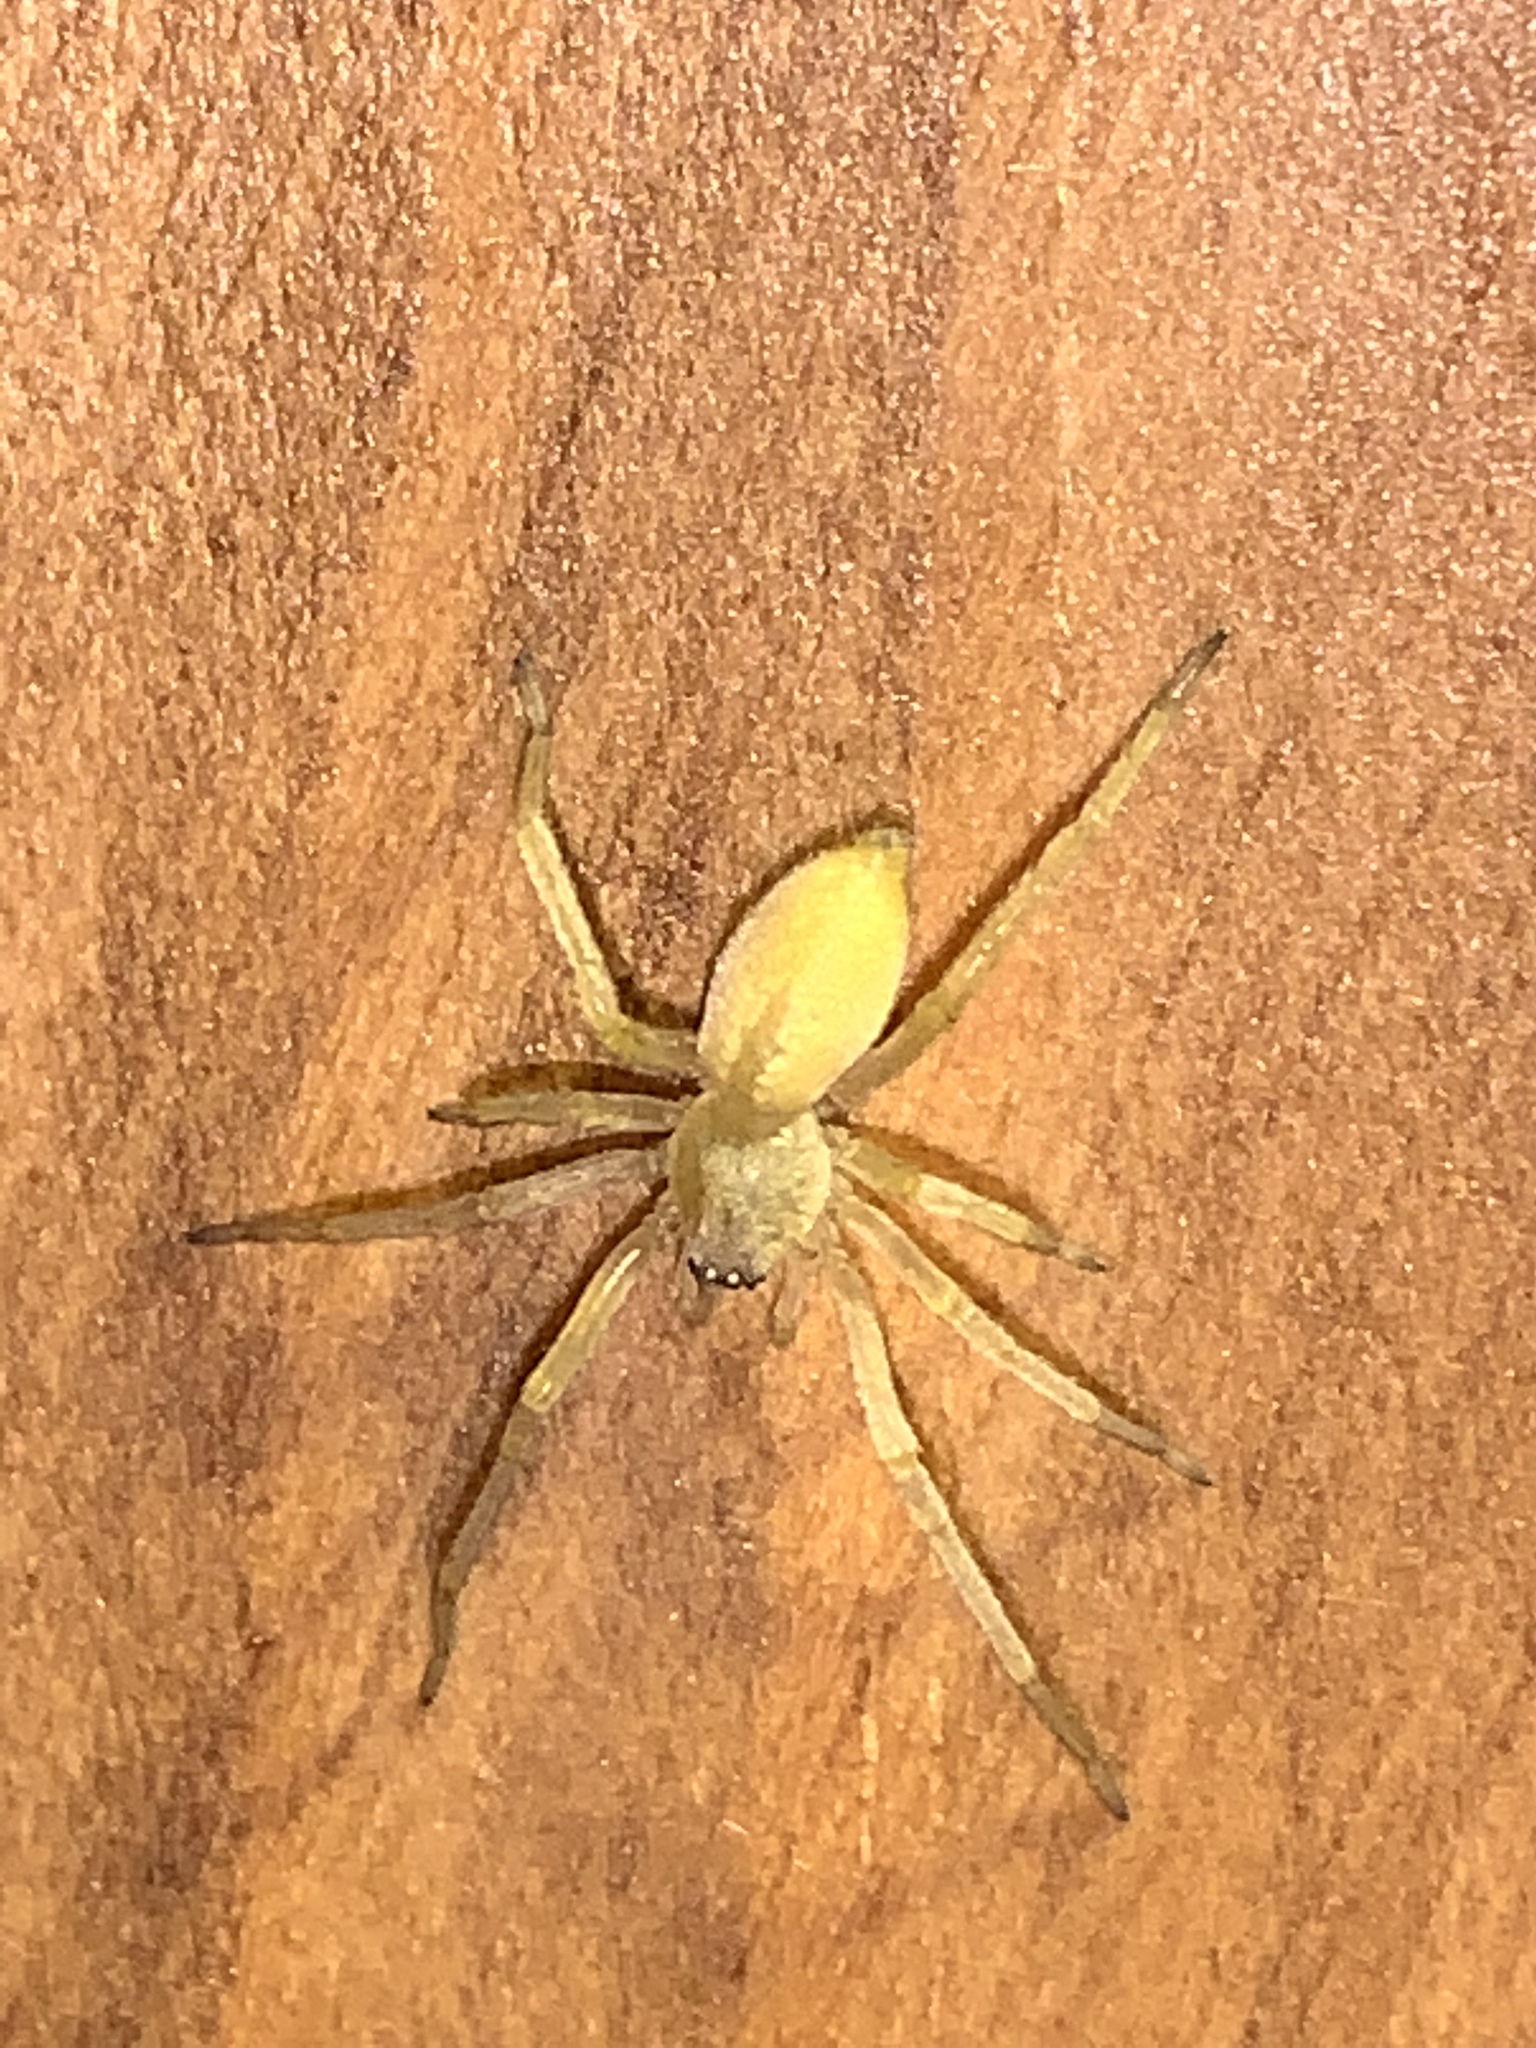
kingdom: Animalia
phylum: Arthropoda
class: Arachnida
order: Araneae
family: Cheiracanthiidae
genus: Cheiracanthium
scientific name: Cheiracanthium mildei
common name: Northern yellow sac spider
